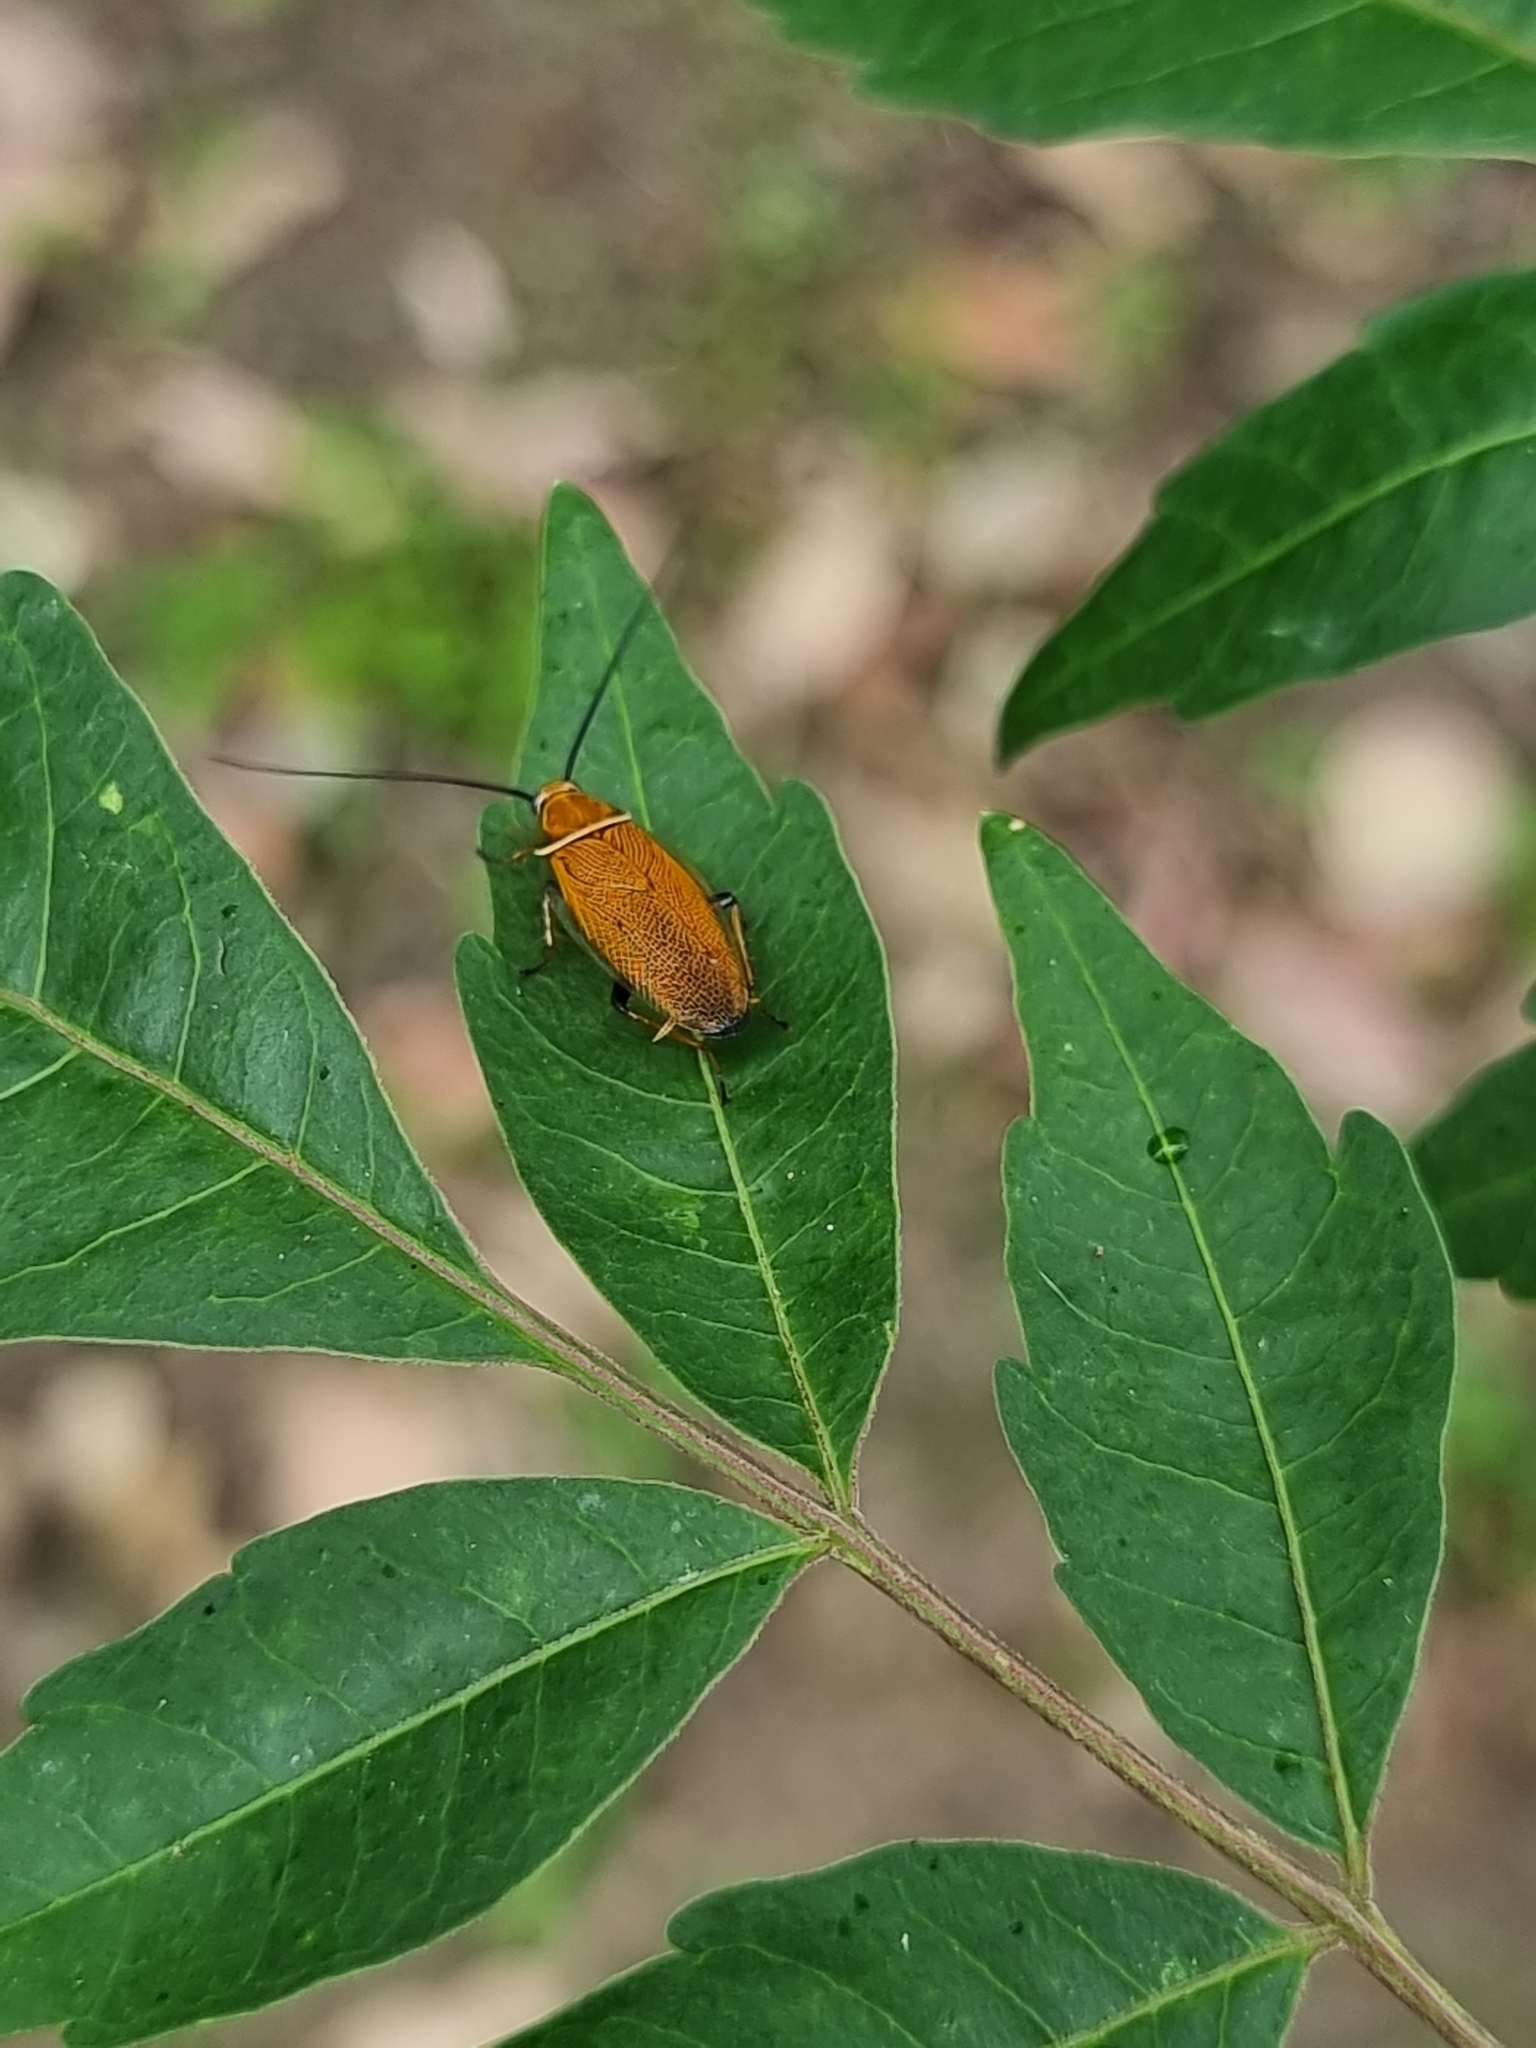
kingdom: Animalia
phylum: Arthropoda
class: Insecta
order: Blattodea
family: Ectobiidae
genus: Ellipsidion
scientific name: Ellipsidion humerale
